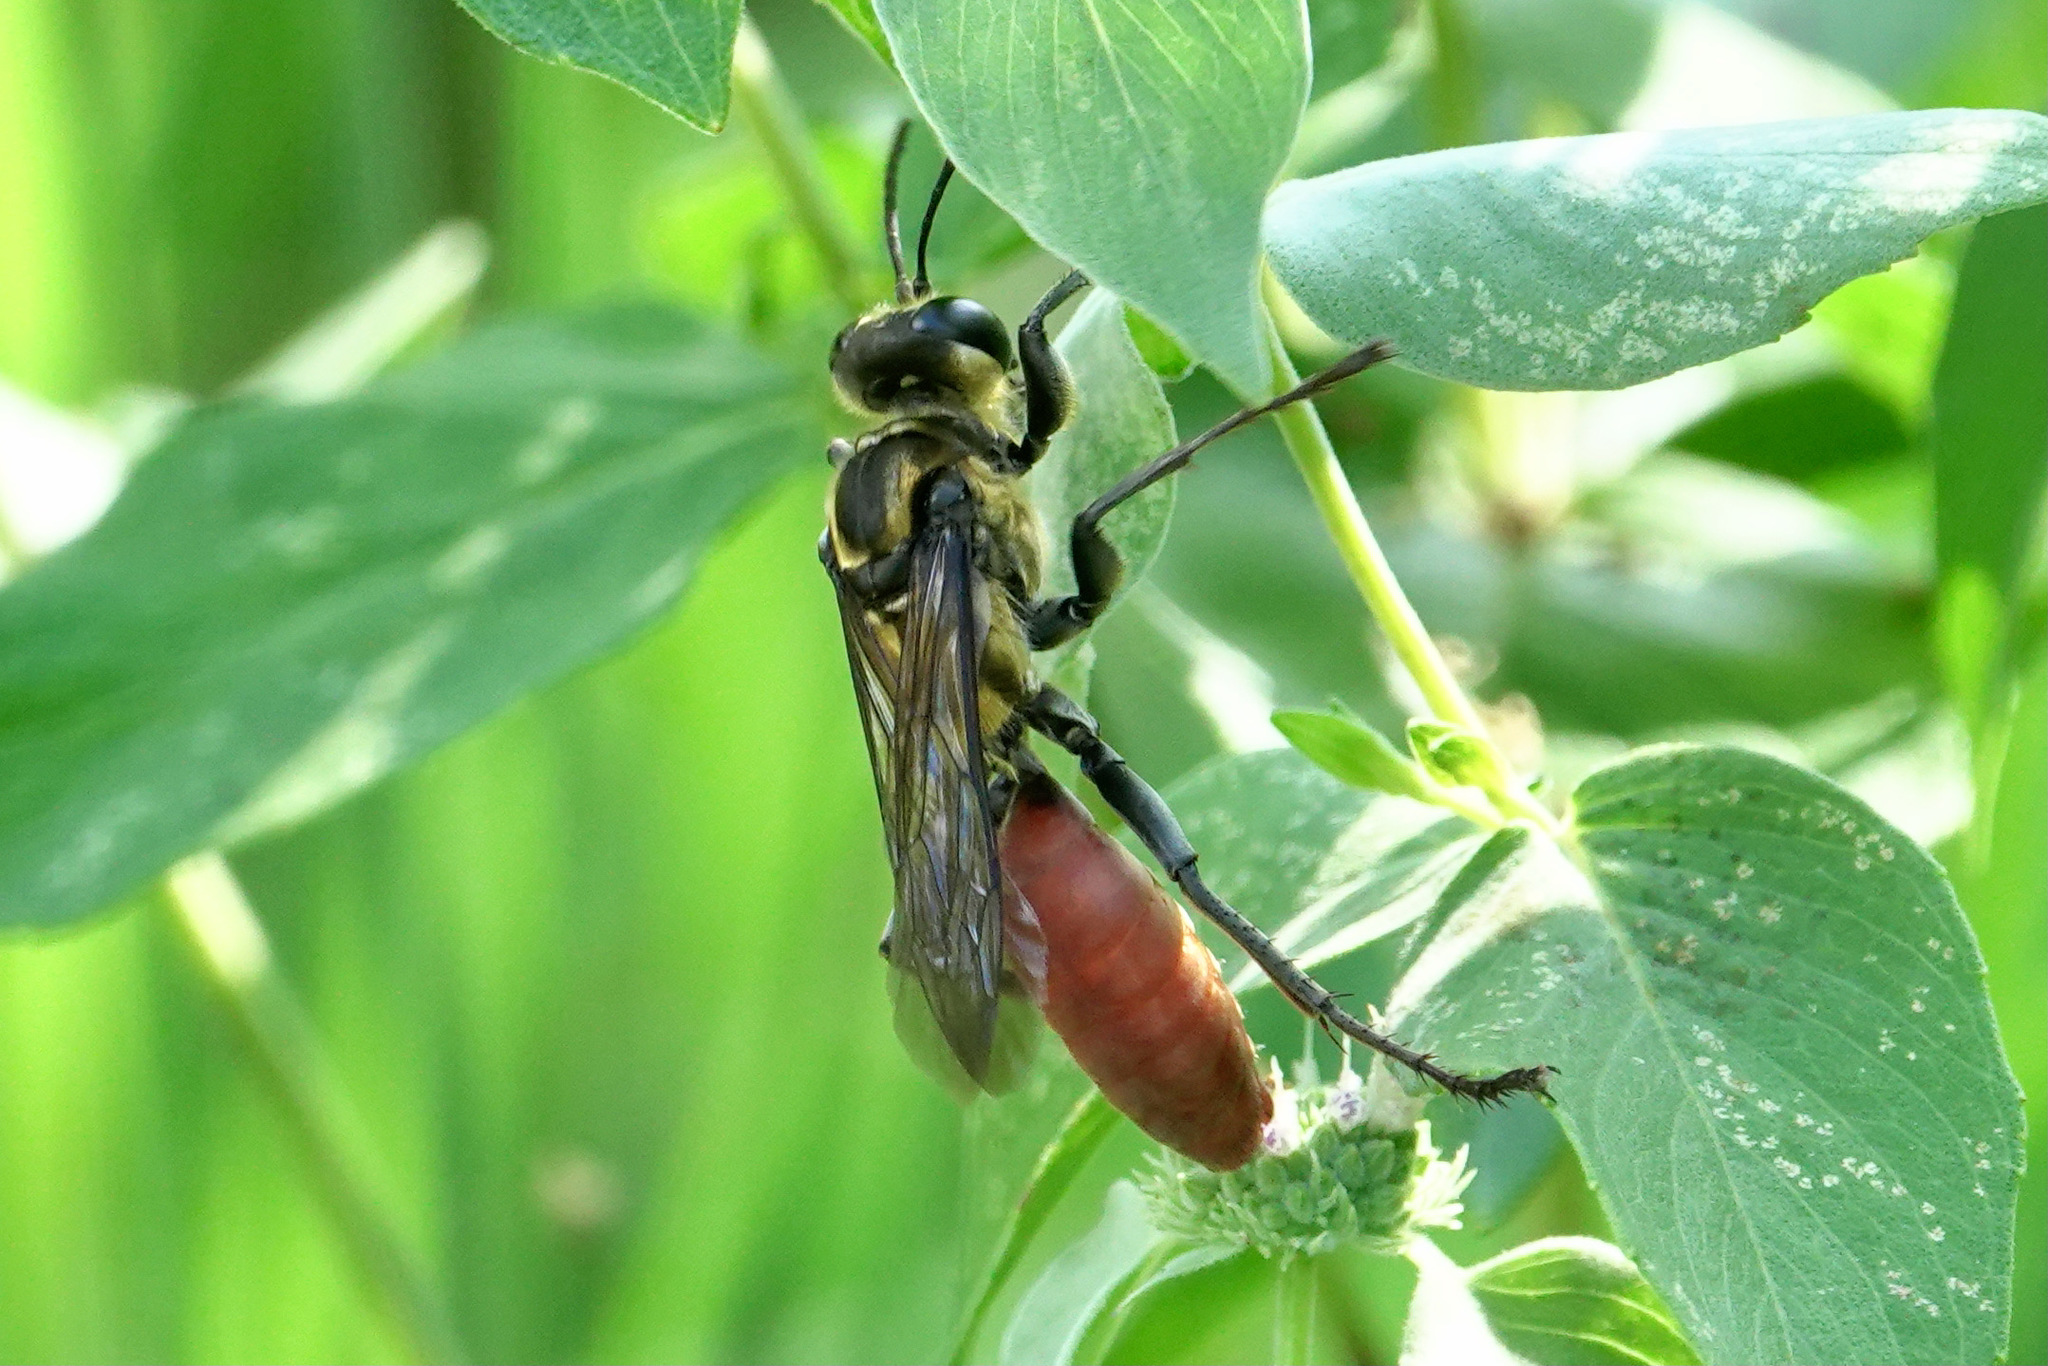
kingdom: Animalia
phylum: Arthropoda
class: Insecta
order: Hymenoptera
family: Sphecidae
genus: Sphex
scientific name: Sphex habenus
